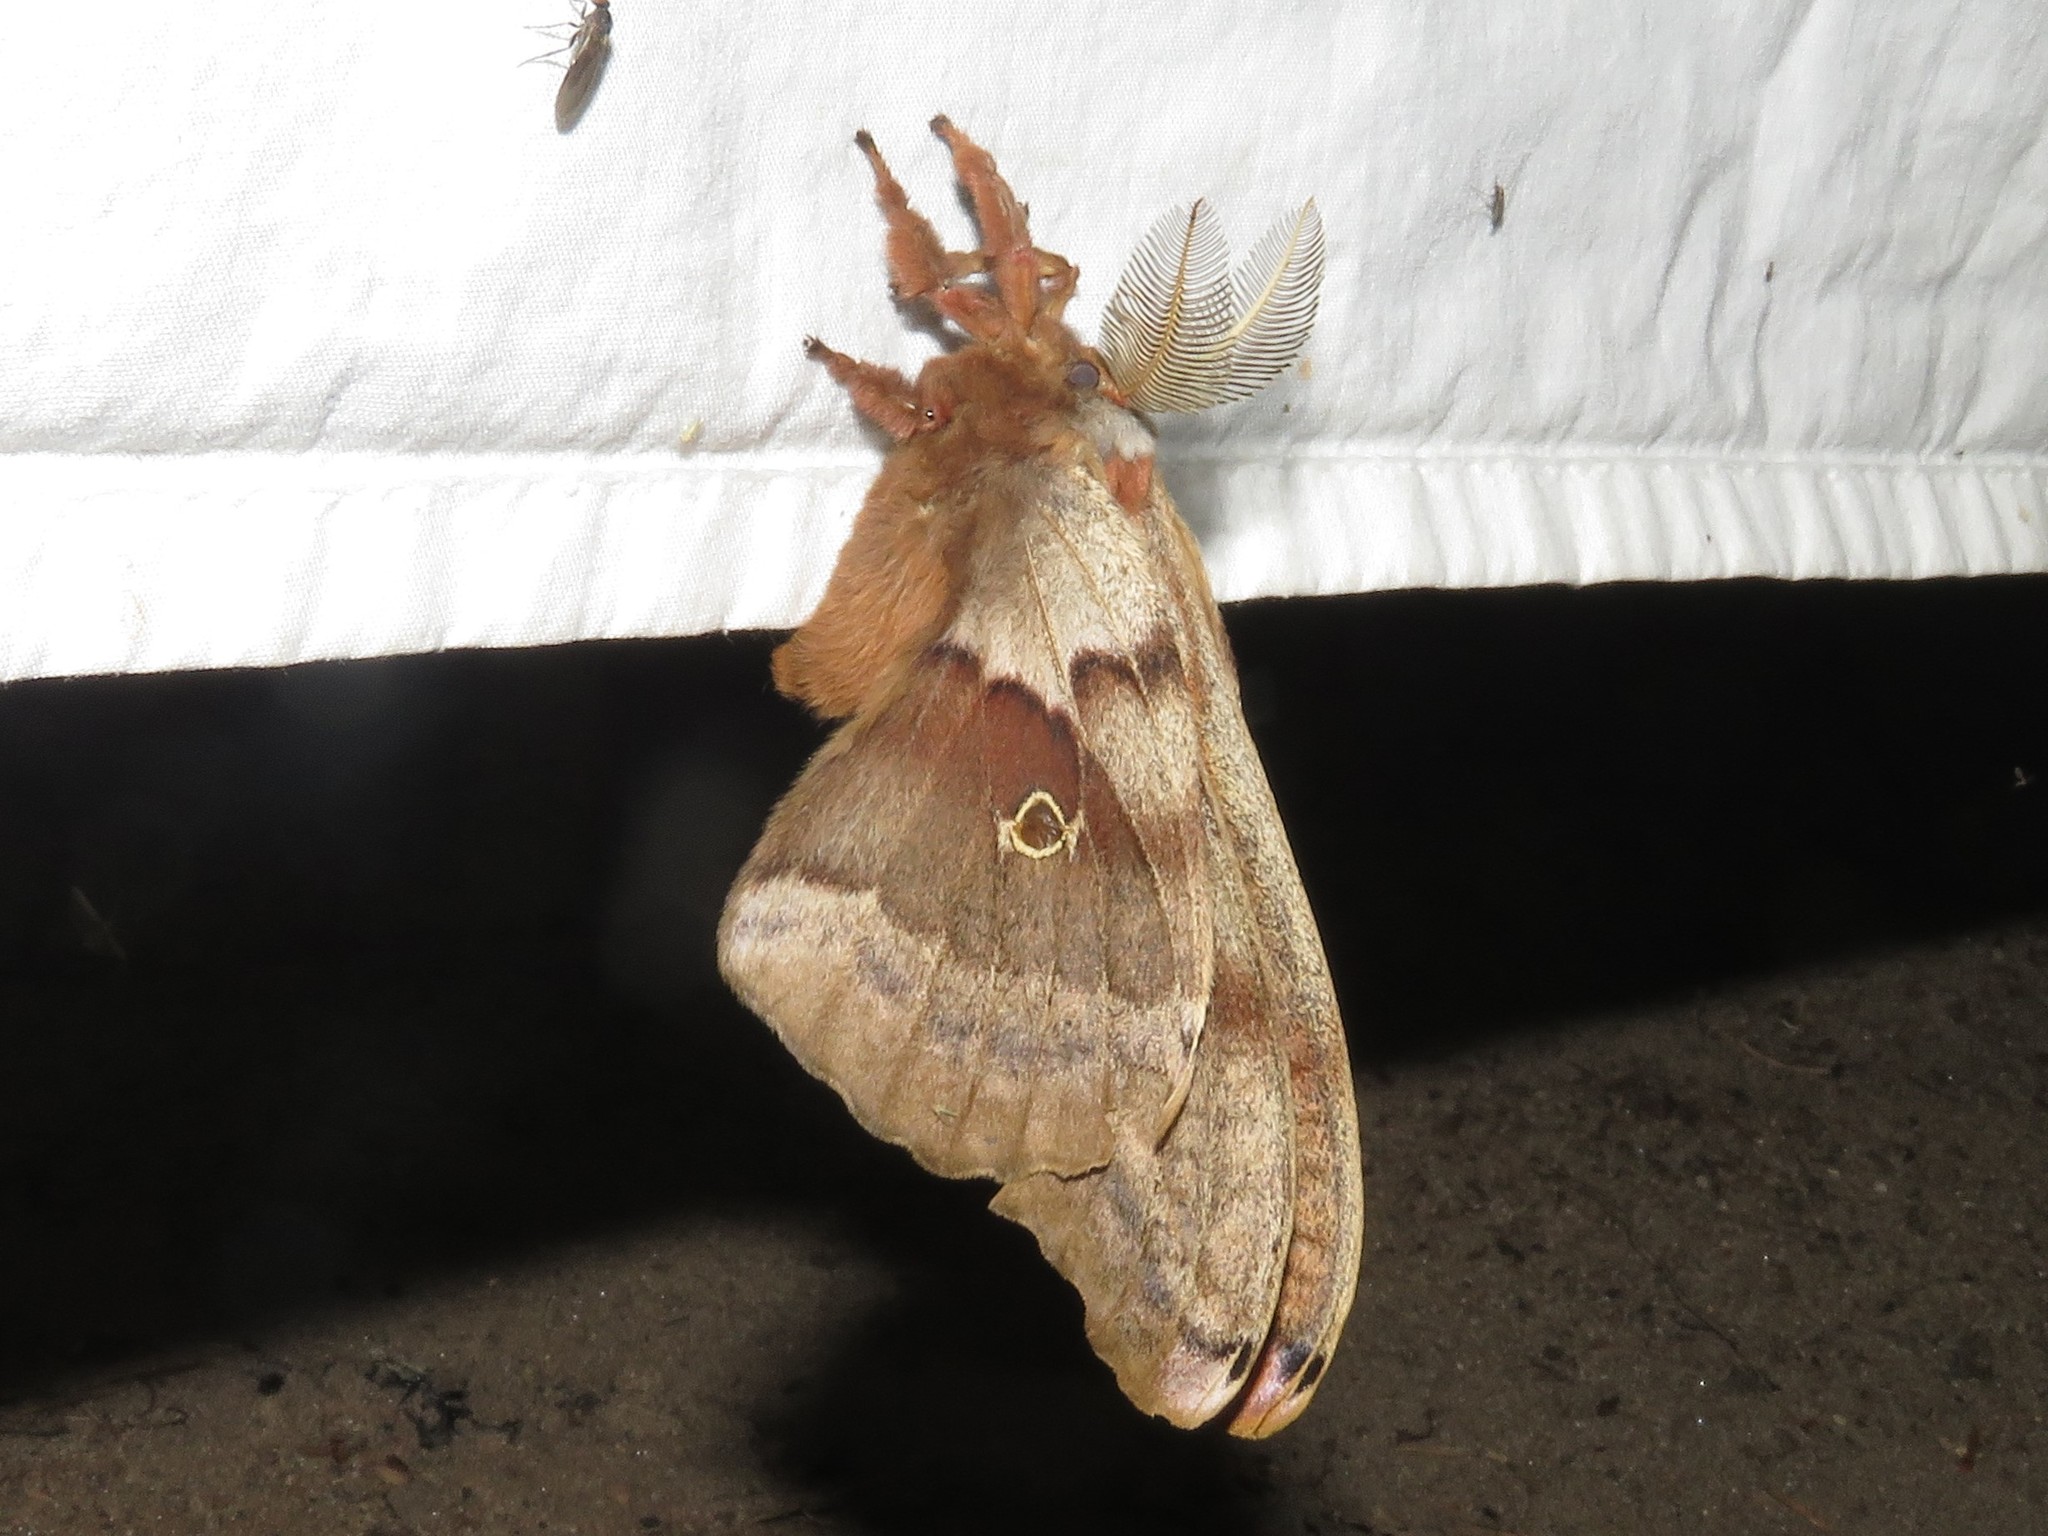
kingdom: Animalia
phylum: Arthropoda
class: Insecta
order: Lepidoptera
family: Saturniidae
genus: Antheraea
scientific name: Antheraea polyphemus
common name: Polyphemus moth
